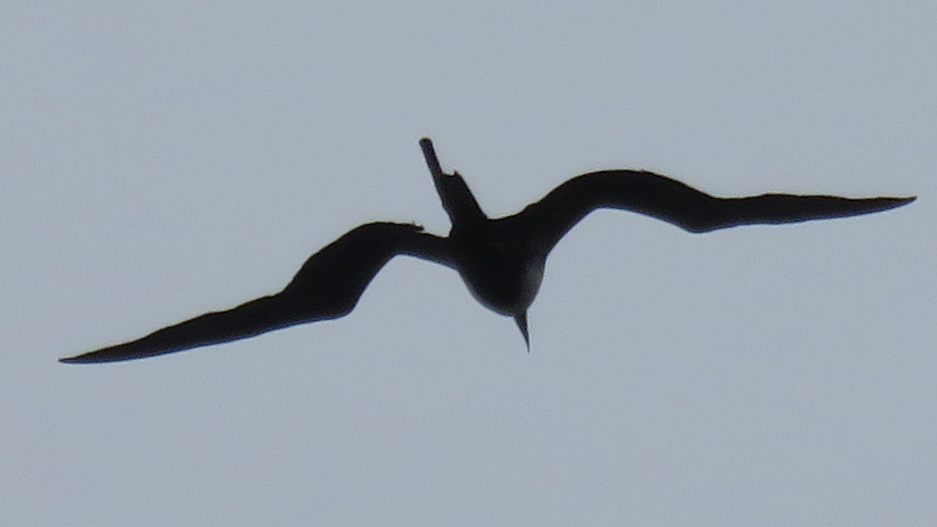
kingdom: Animalia
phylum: Chordata
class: Aves
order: Suliformes
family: Fregatidae
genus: Fregata
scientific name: Fregata magnificens
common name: Magnificent frigatebird
